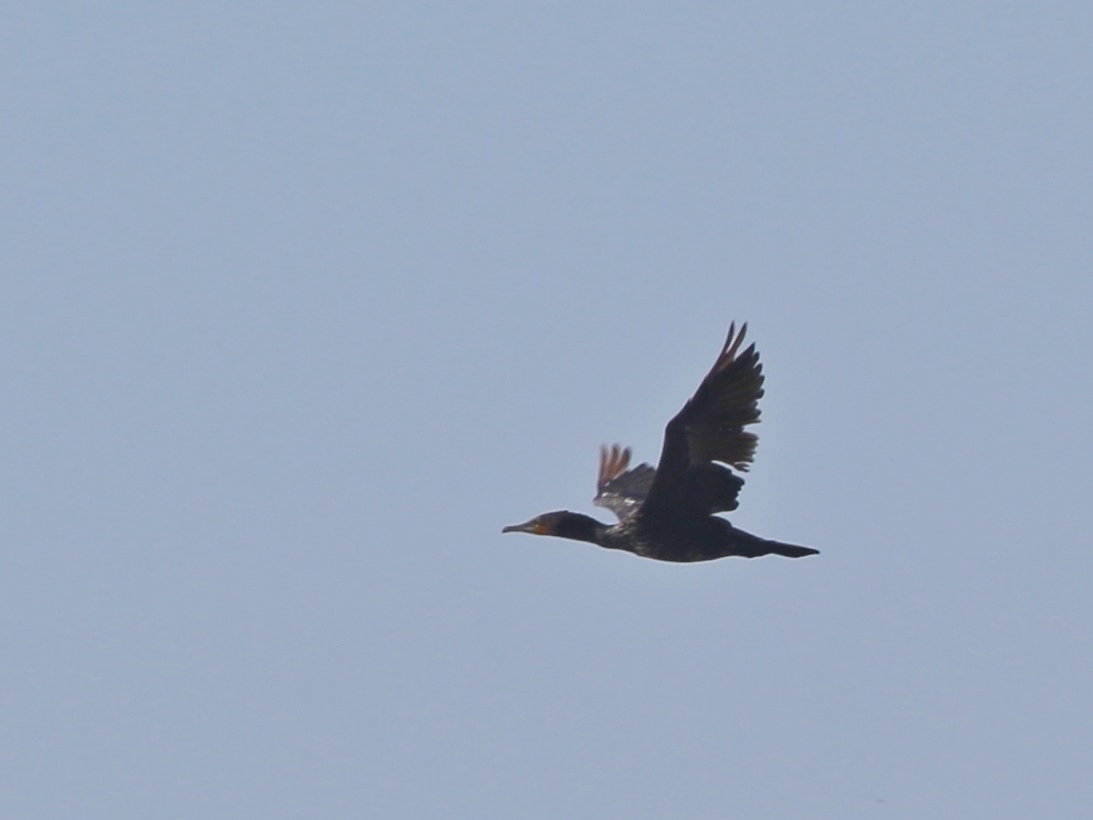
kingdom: Animalia
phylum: Chordata
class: Aves
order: Suliformes
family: Phalacrocoracidae
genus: Phalacrocorax
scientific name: Phalacrocorax carbo
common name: Great cormorant
